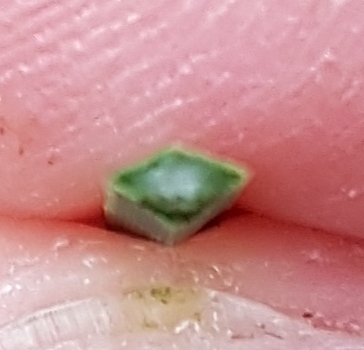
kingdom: Plantae
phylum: Tracheophyta
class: Liliopsida
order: Asparagales
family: Asphodelaceae
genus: Xanthorrhoea
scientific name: Xanthorrhoea australis
